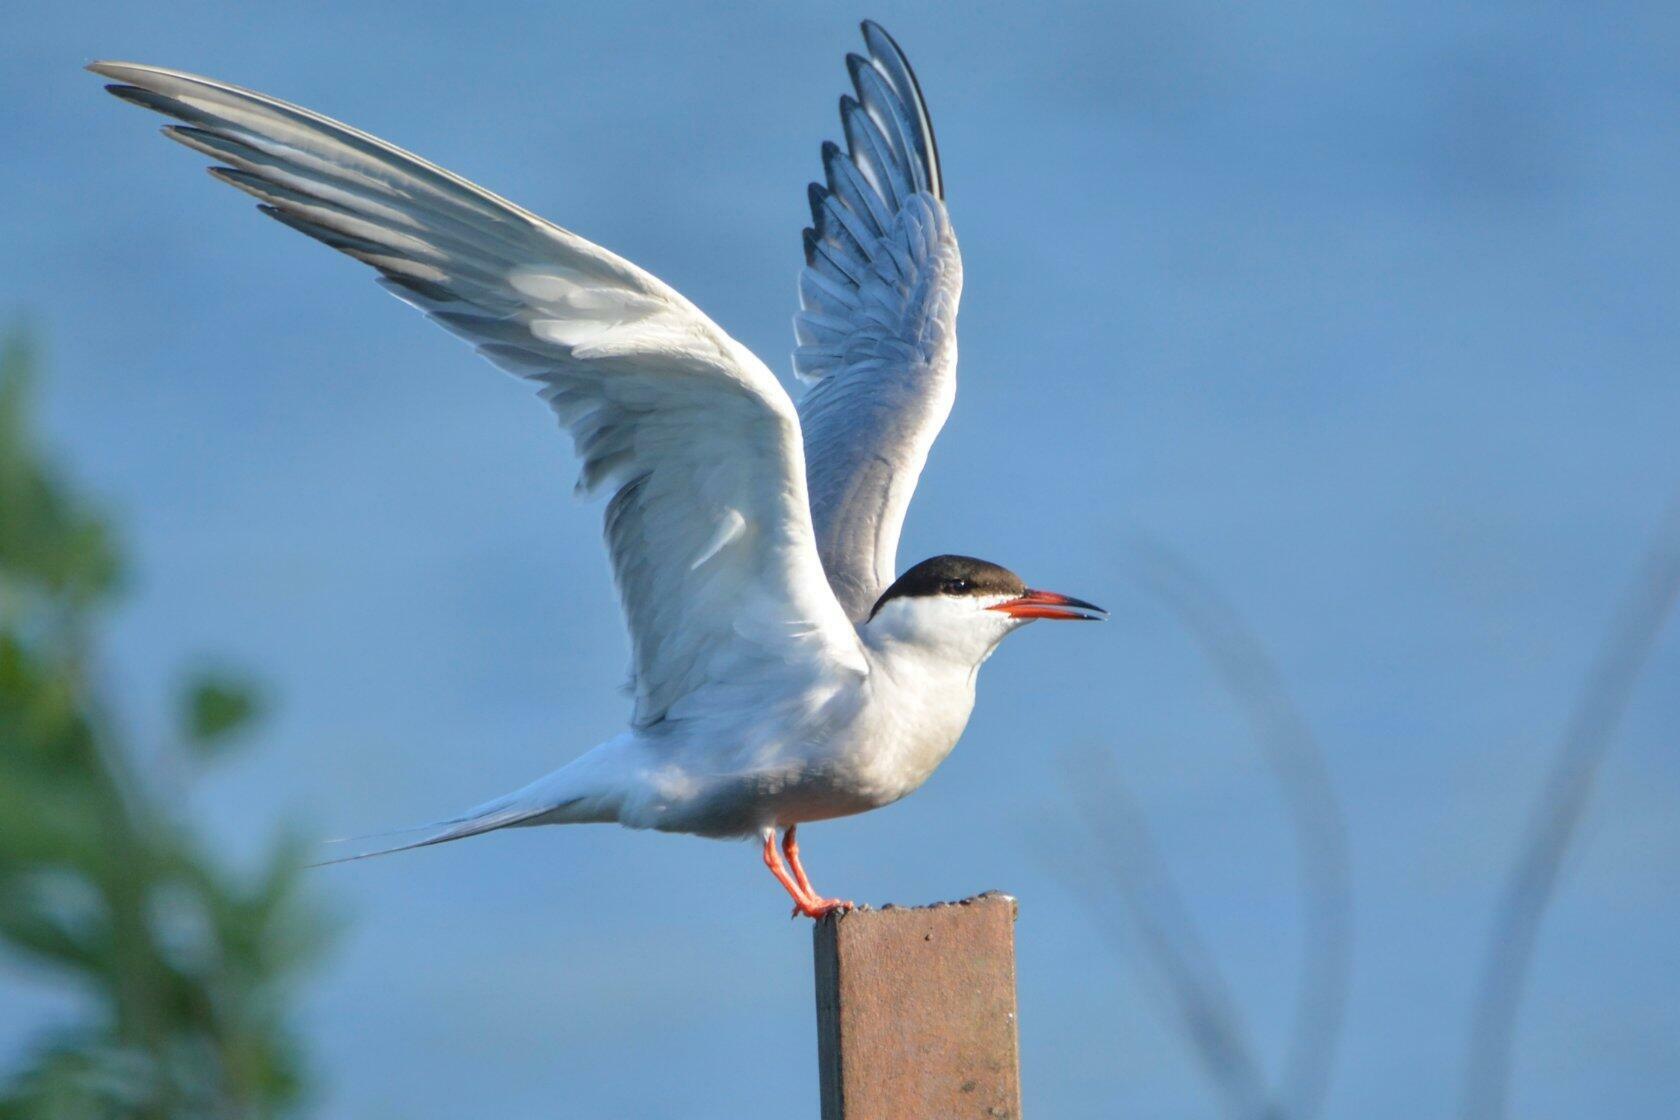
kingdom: Animalia
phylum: Chordata
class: Aves
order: Charadriiformes
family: Laridae
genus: Sterna
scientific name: Sterna hirundo
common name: Common tern
